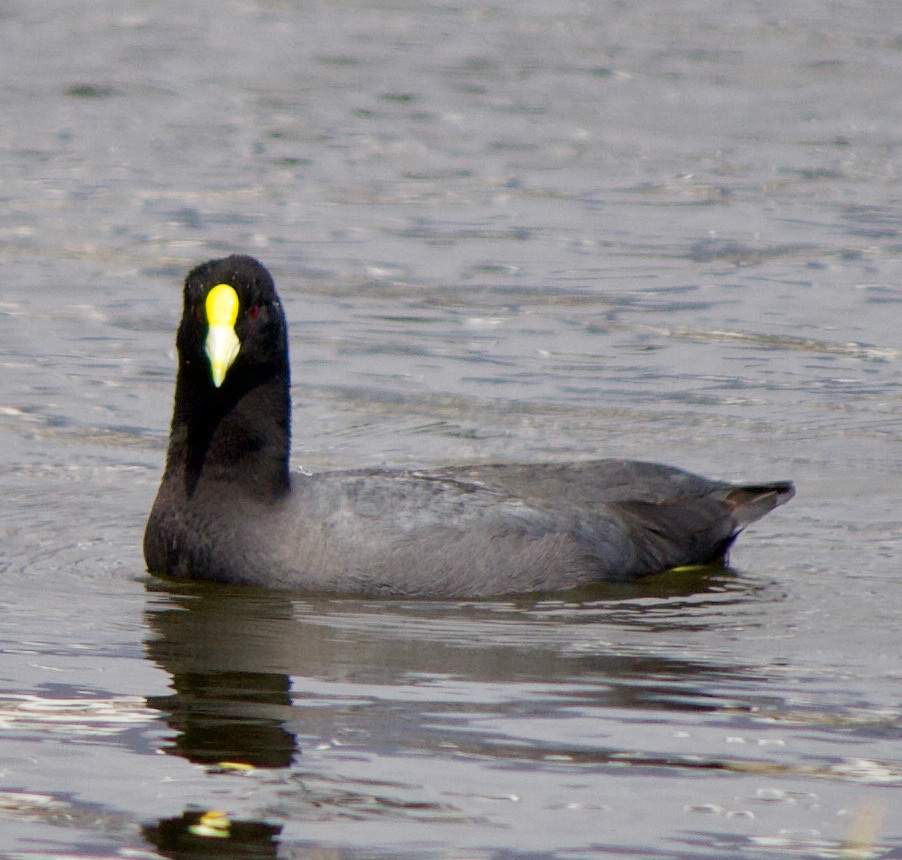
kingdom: Animalia
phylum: Chordata
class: Aves
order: Gruiformes
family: Rallidae
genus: Fulica
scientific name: Fulica leucoptera
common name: White-winged coot
